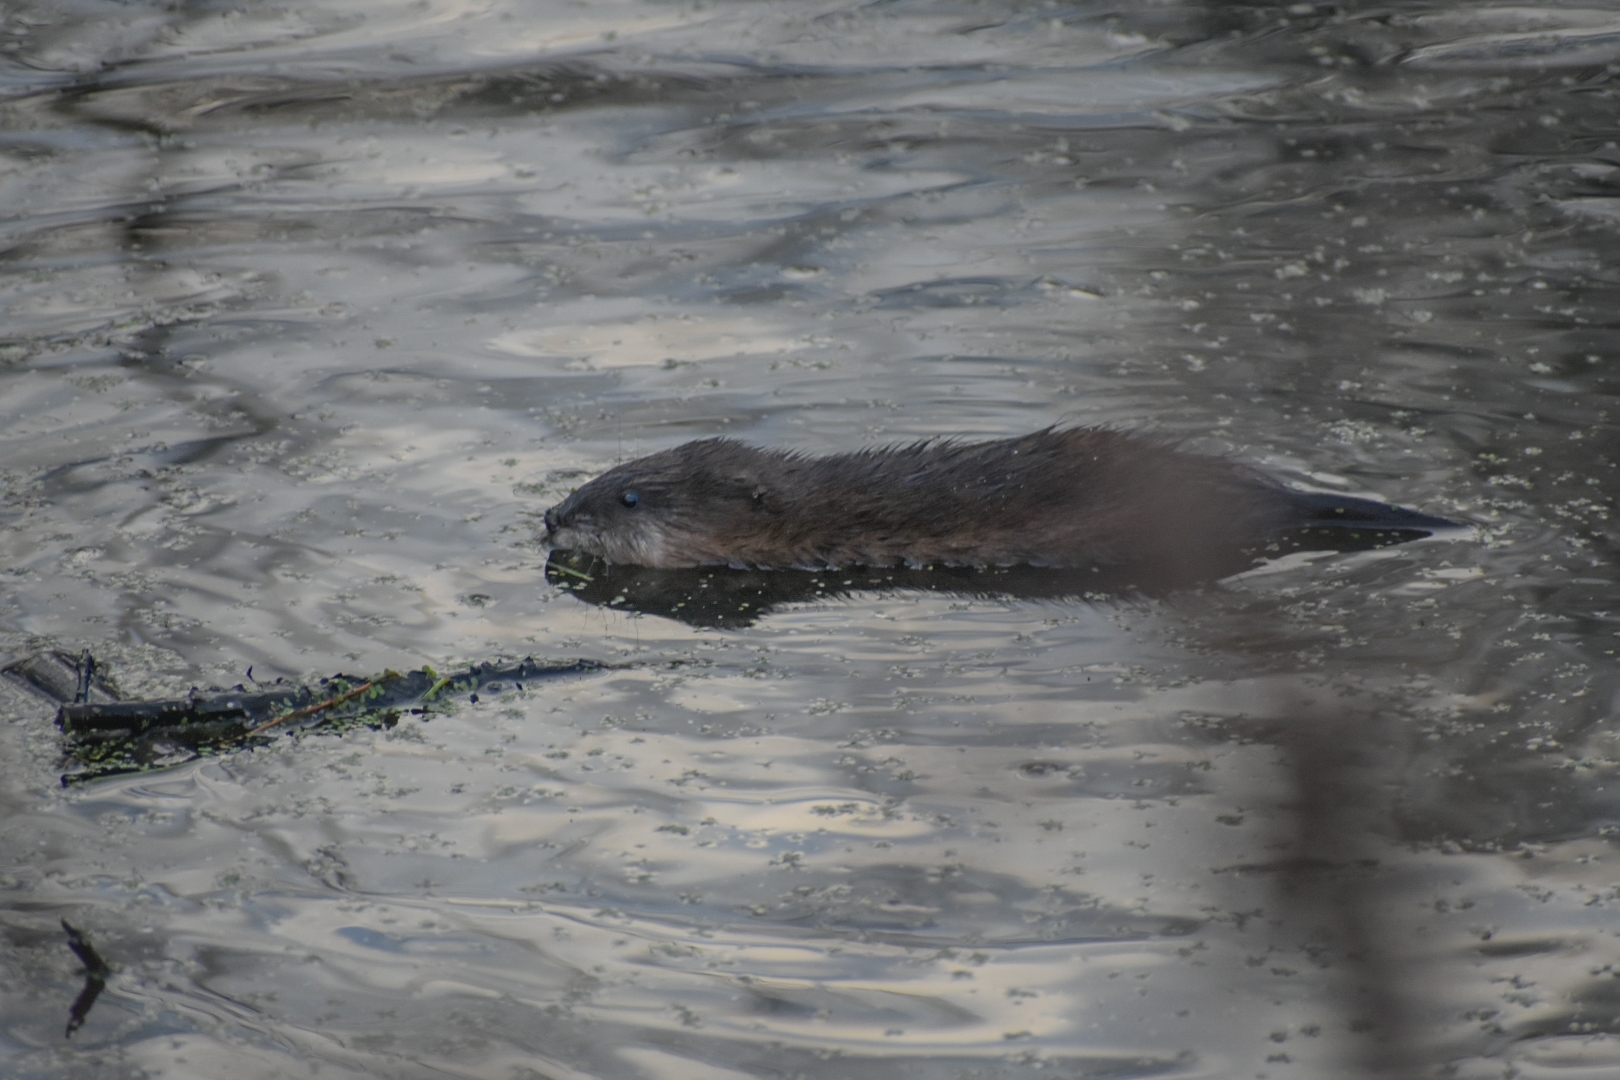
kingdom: Animalia
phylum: Chordata
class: Mammalia
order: Rodentia
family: Cricetidae
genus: Ondatra
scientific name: Ondatra zibethicus
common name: Muskrat
